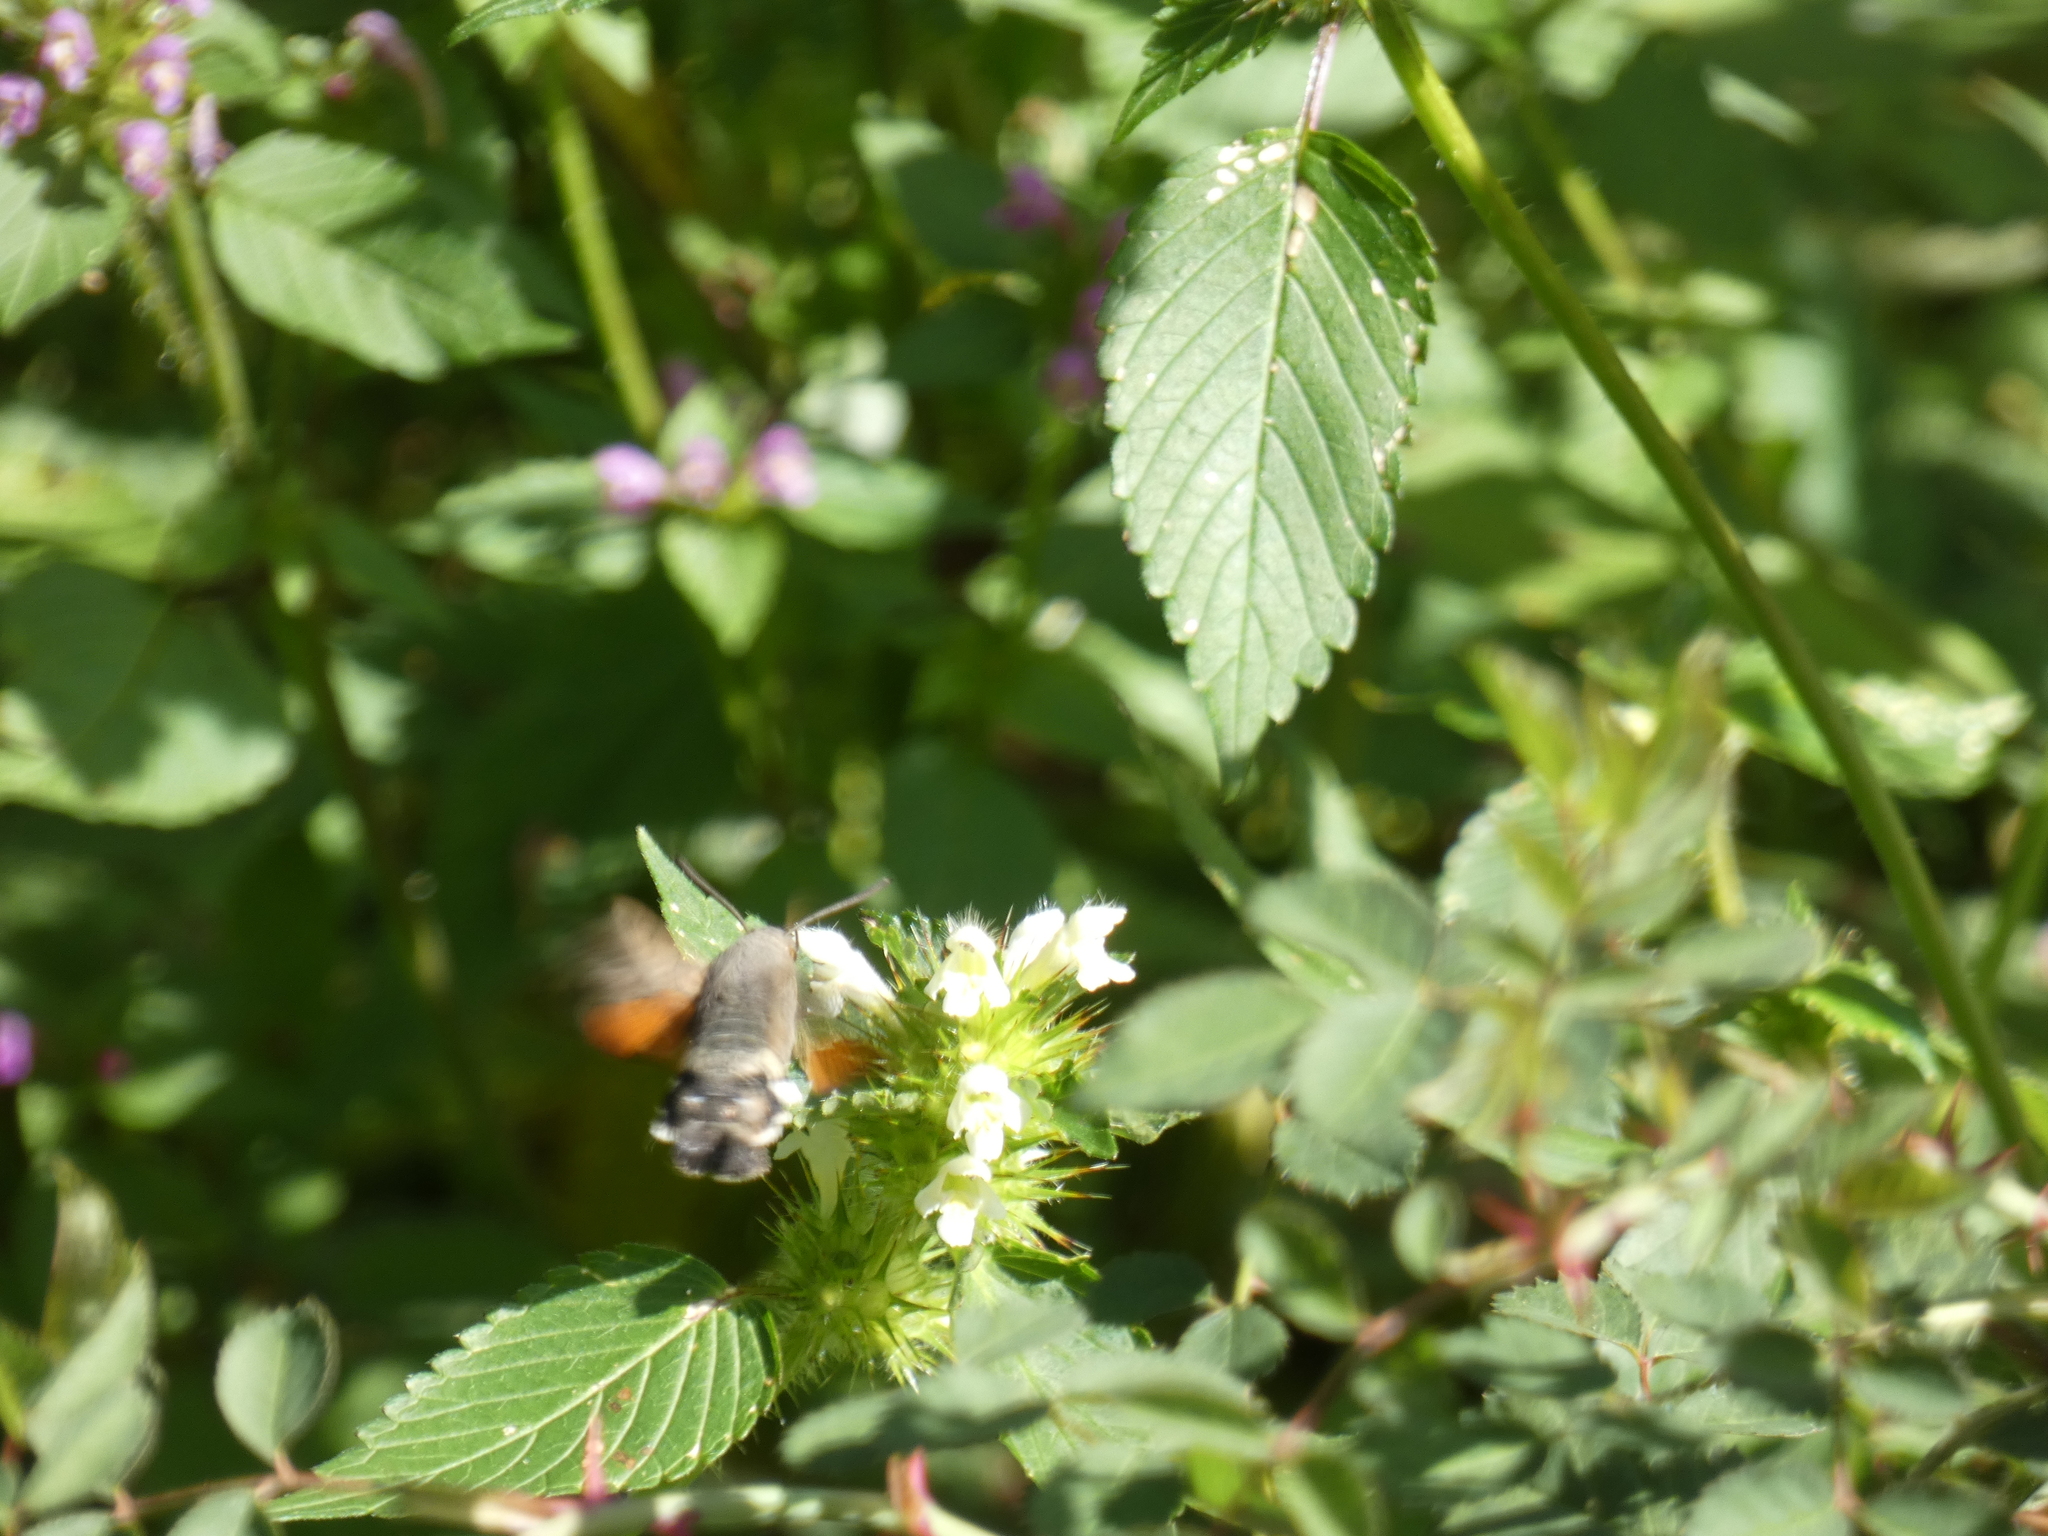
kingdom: Animalia
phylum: Arthropoda
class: Insecta
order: Lepidoptera
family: Sphingidae
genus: Macroglossum
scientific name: Macroglossum stellatarum
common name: Humming-bird hawk-moth
